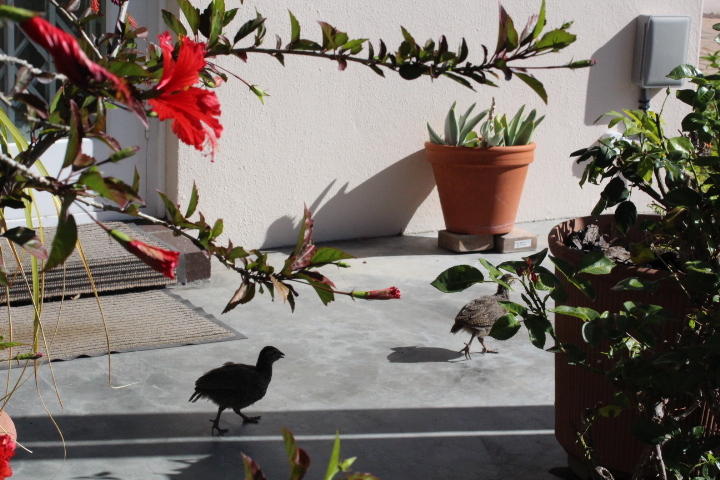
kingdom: Animalia
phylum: Chordata
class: Aves
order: Galliformes
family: Phasianidae
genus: Pternistis
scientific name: Pternistis capensis
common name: Cape spurfowl
